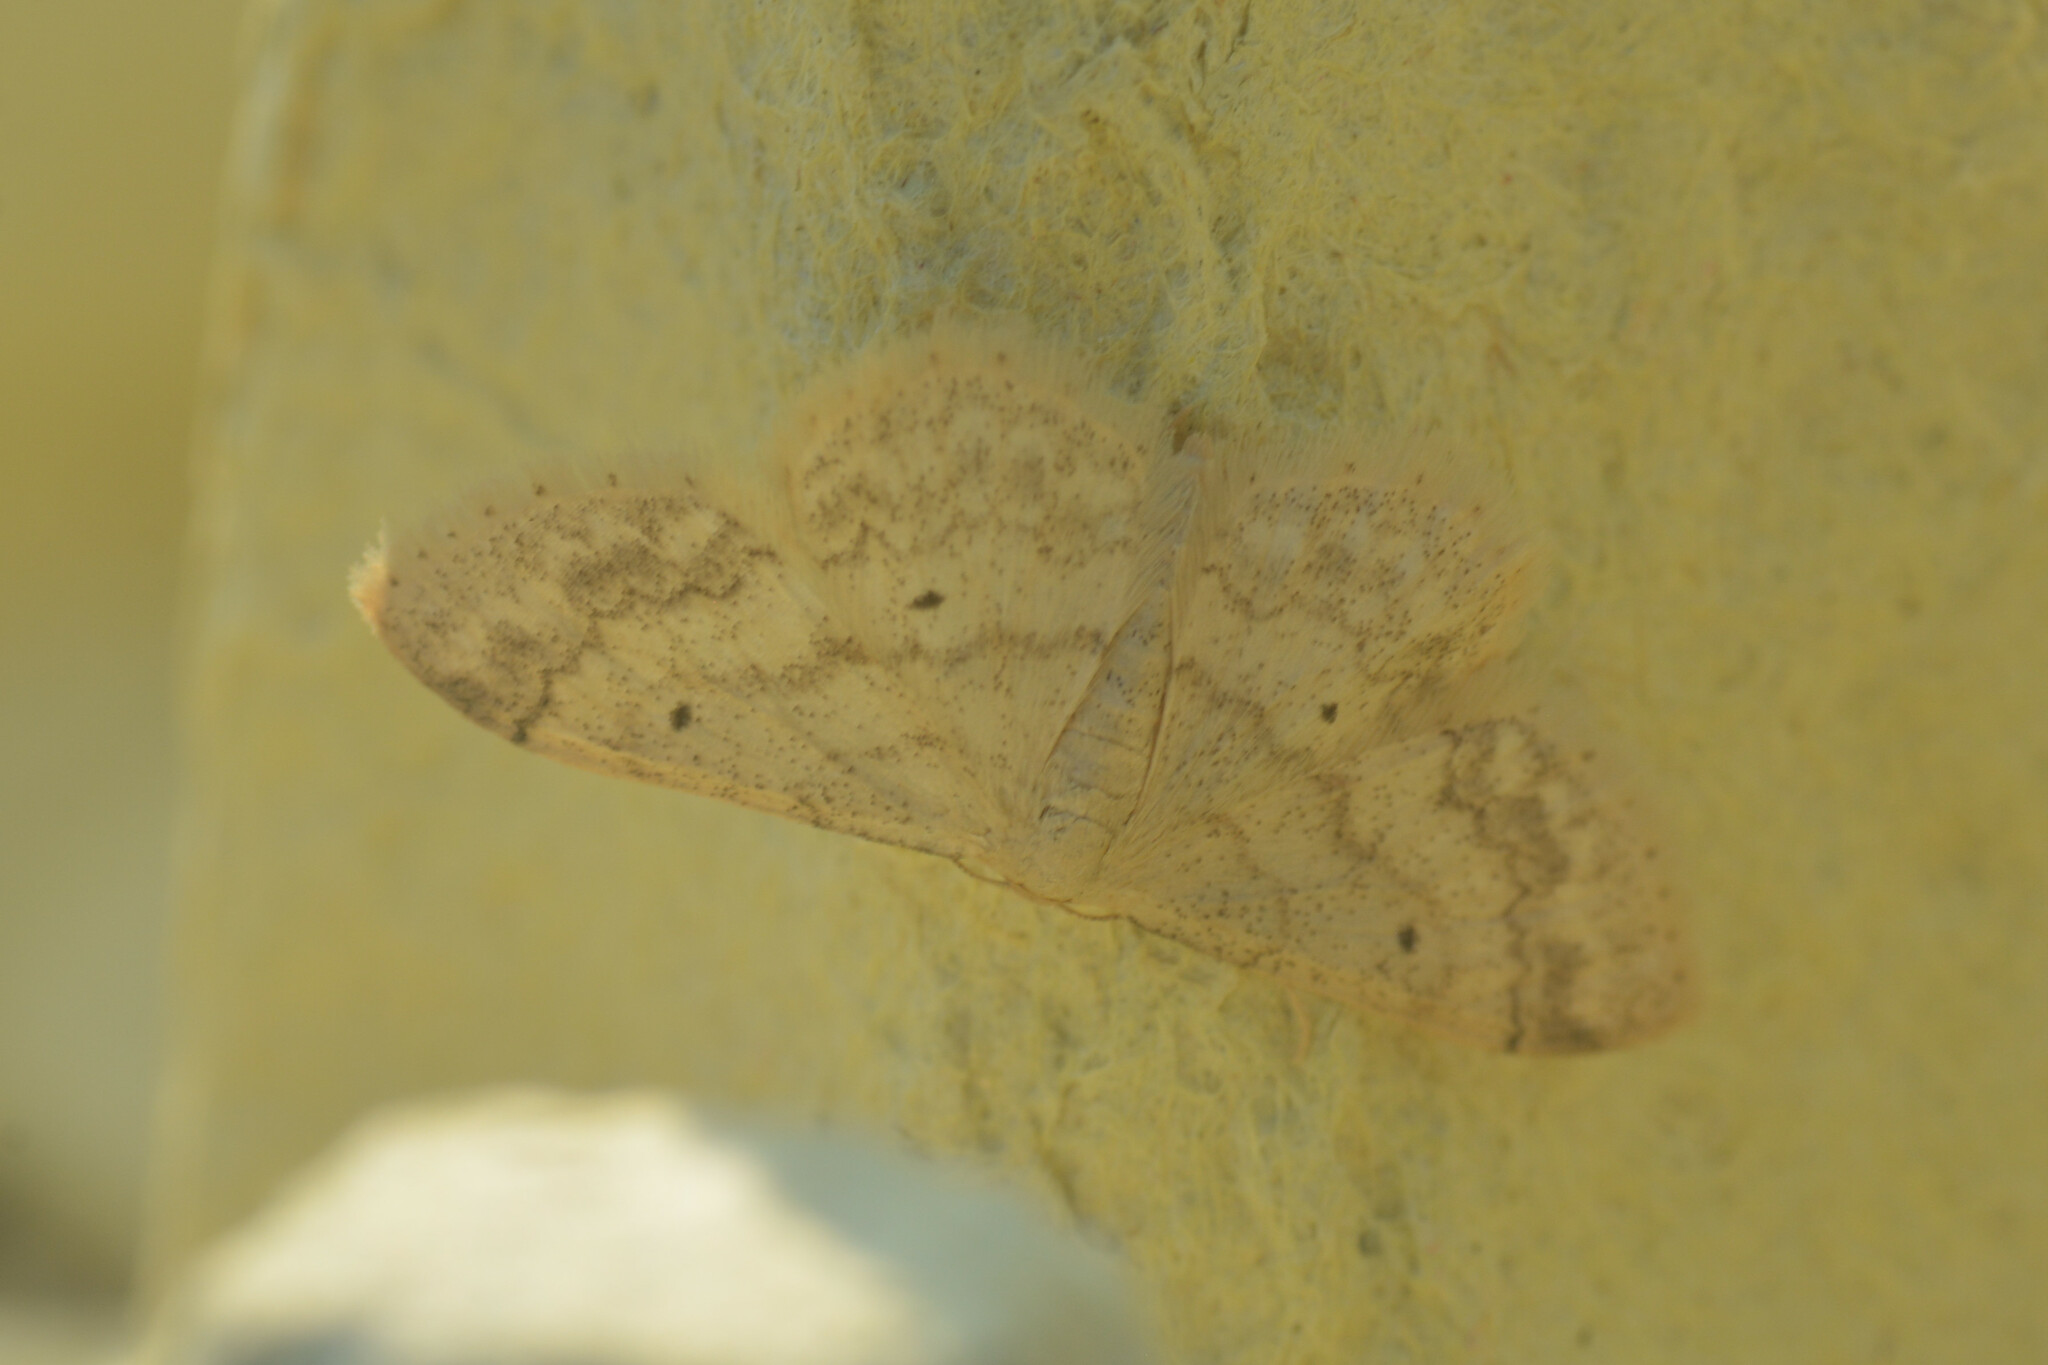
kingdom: Animalia
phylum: Arthropoda
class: Insecta
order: Lepidoptera
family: Geometridae
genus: Idaea
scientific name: Idaea biselata
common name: Small fan-footed wave
